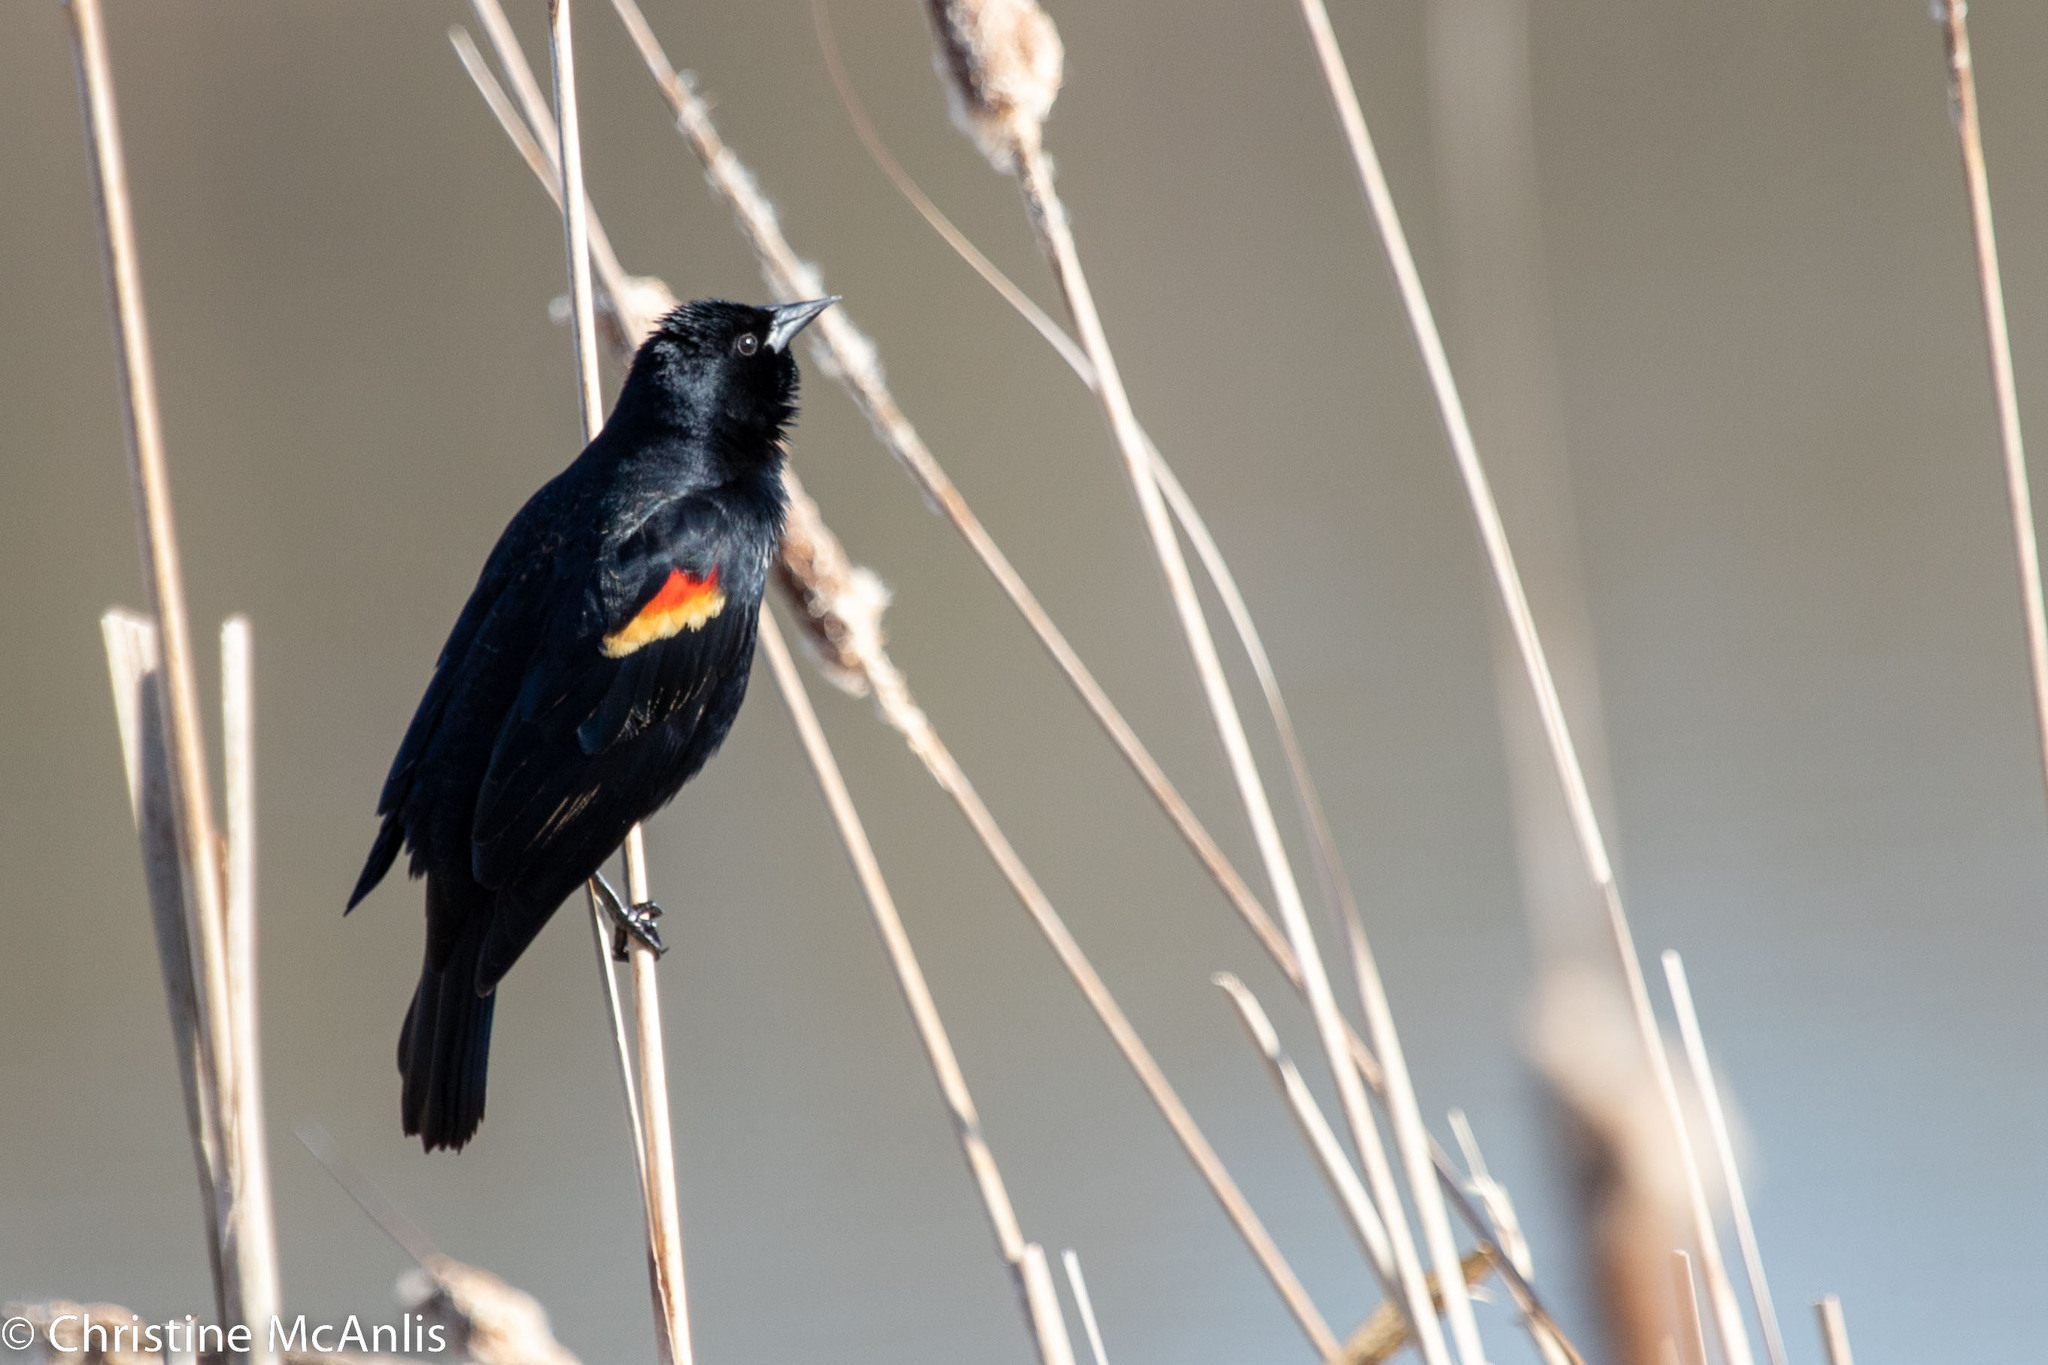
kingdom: Animalia
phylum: Chordata
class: Aves
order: Passeriformes
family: Icteridae
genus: Agelaius
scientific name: Agelaius phoeniceus
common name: Red-winged blackbird
